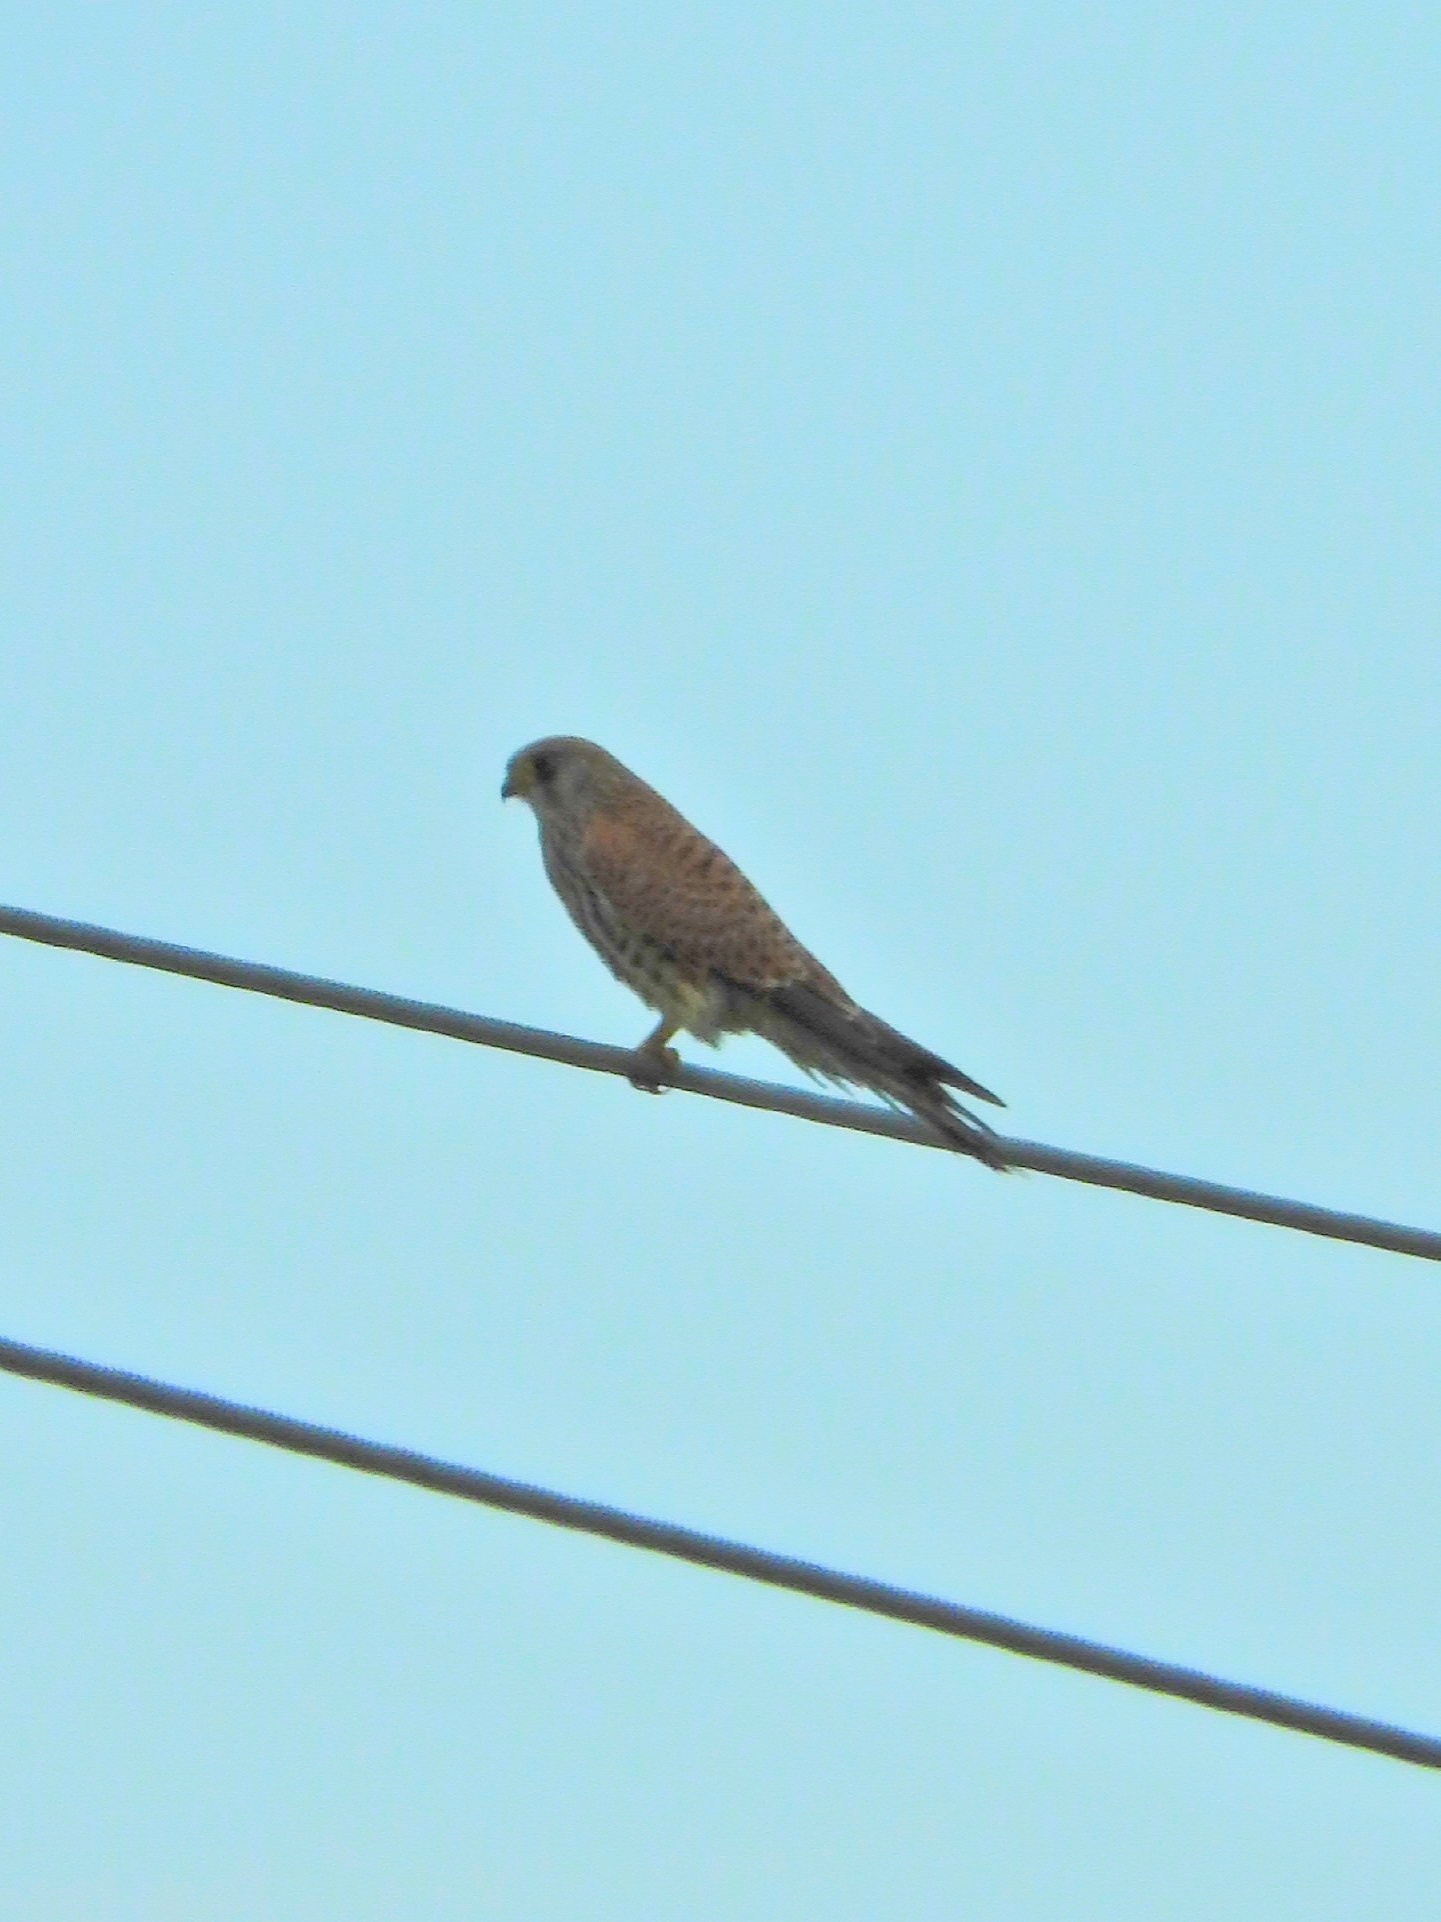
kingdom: Animalia
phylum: Chordata
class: Aves
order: Falconiformes
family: Falconidae
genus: Falco
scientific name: Falco naumanni
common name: Lesser kestrel
